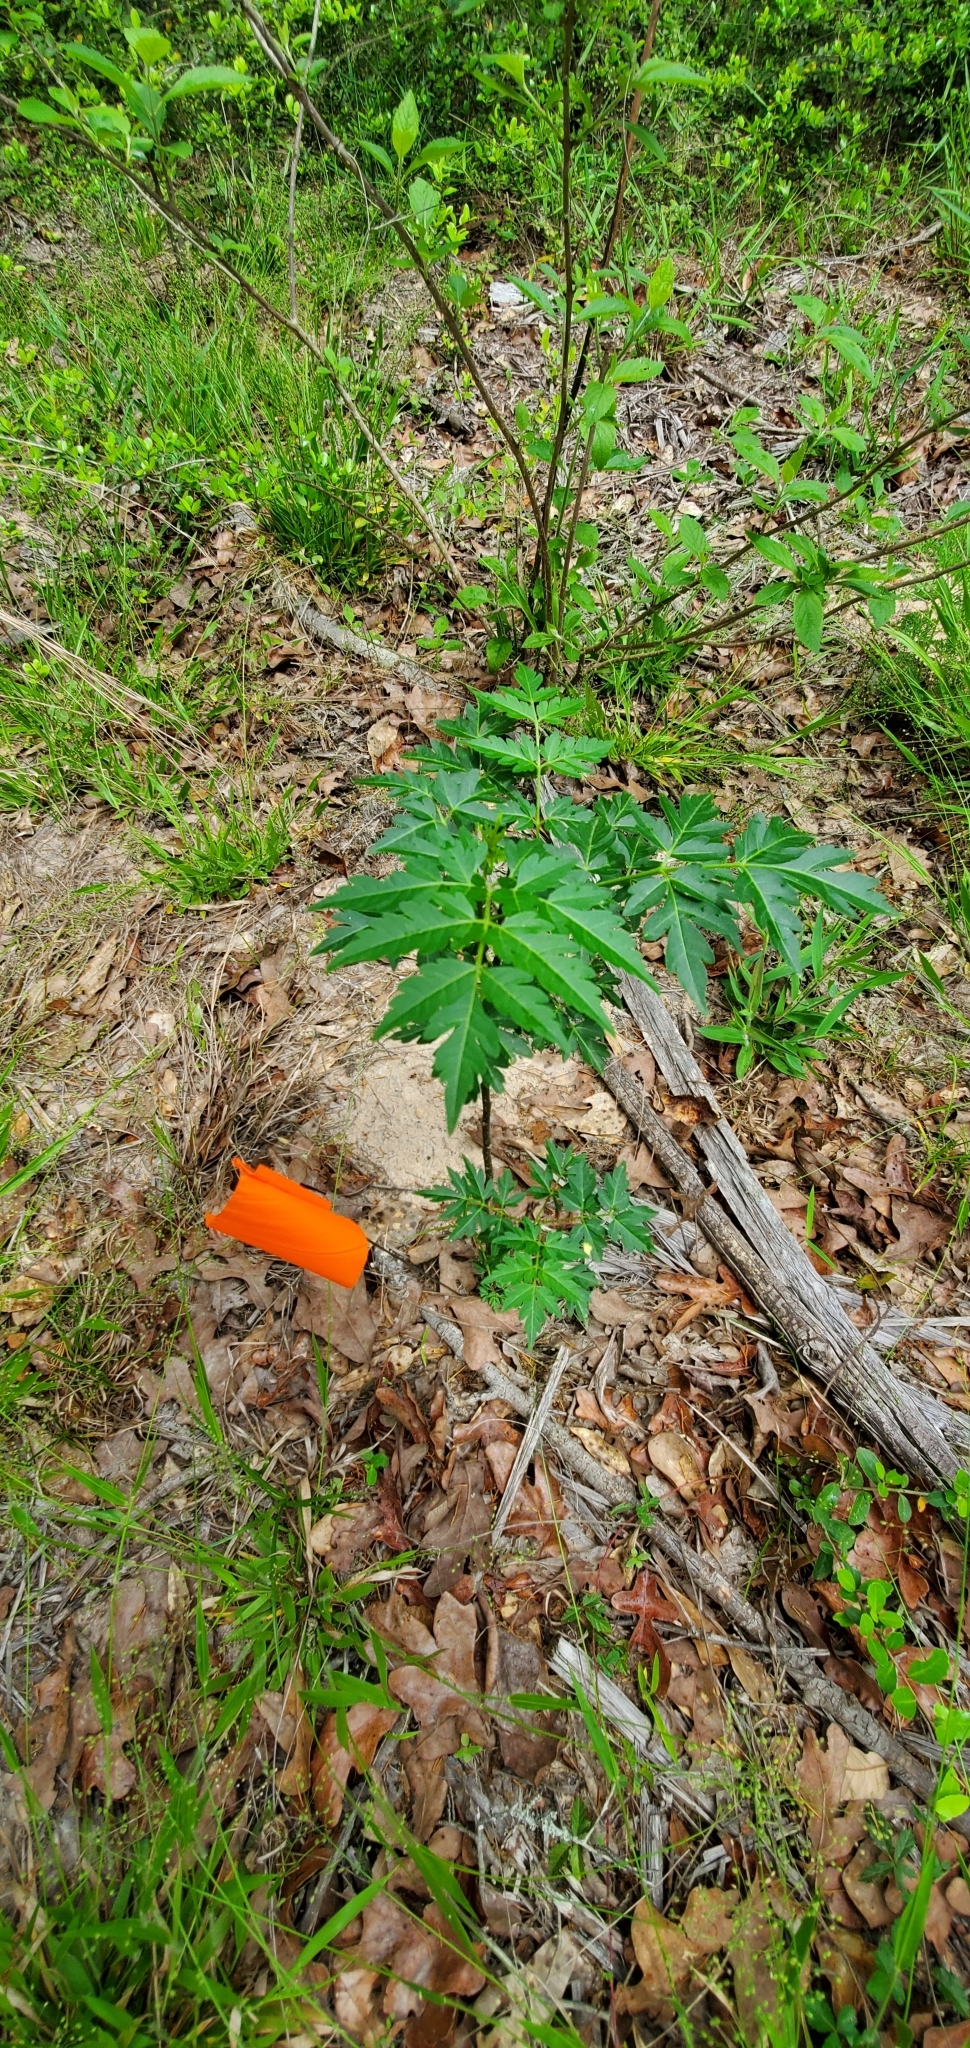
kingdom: Plantae
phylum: Tracheophyta
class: Magnoliopsida
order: Sapindales
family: Meliaceae
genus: Melia
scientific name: Melia azedarach
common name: Chinaberrytree
